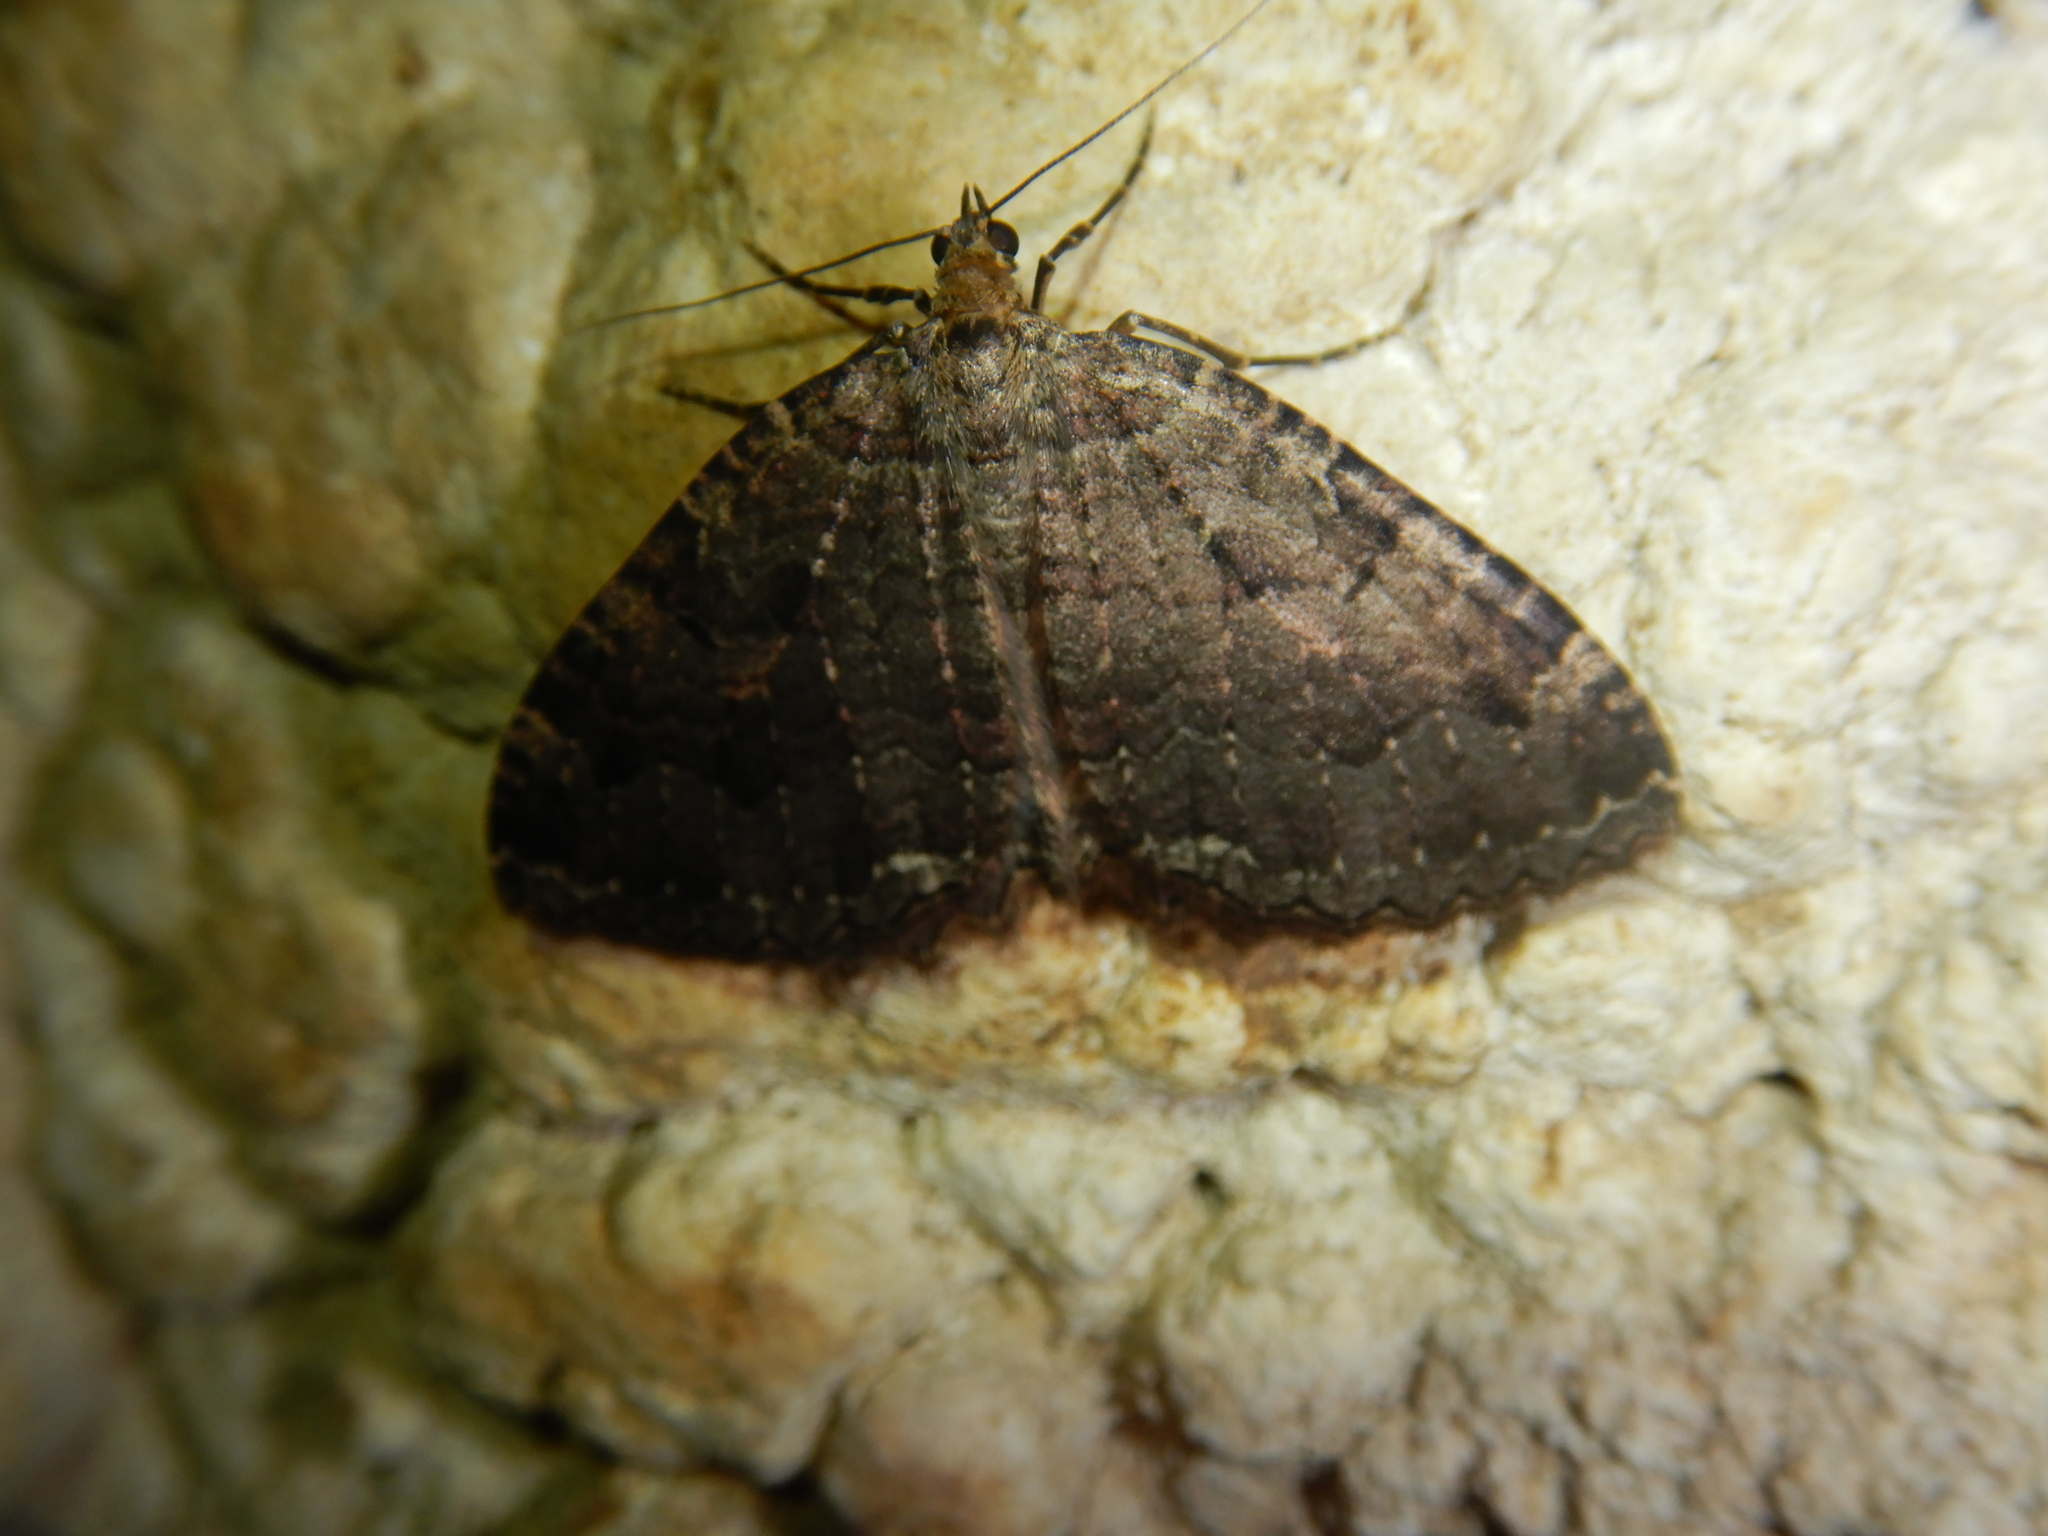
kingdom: Animalia
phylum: Arthropoda
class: Insecta
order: Lepidoptera
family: Geometridae
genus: Triphosa
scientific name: Triphosa dubitata
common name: Tissue
